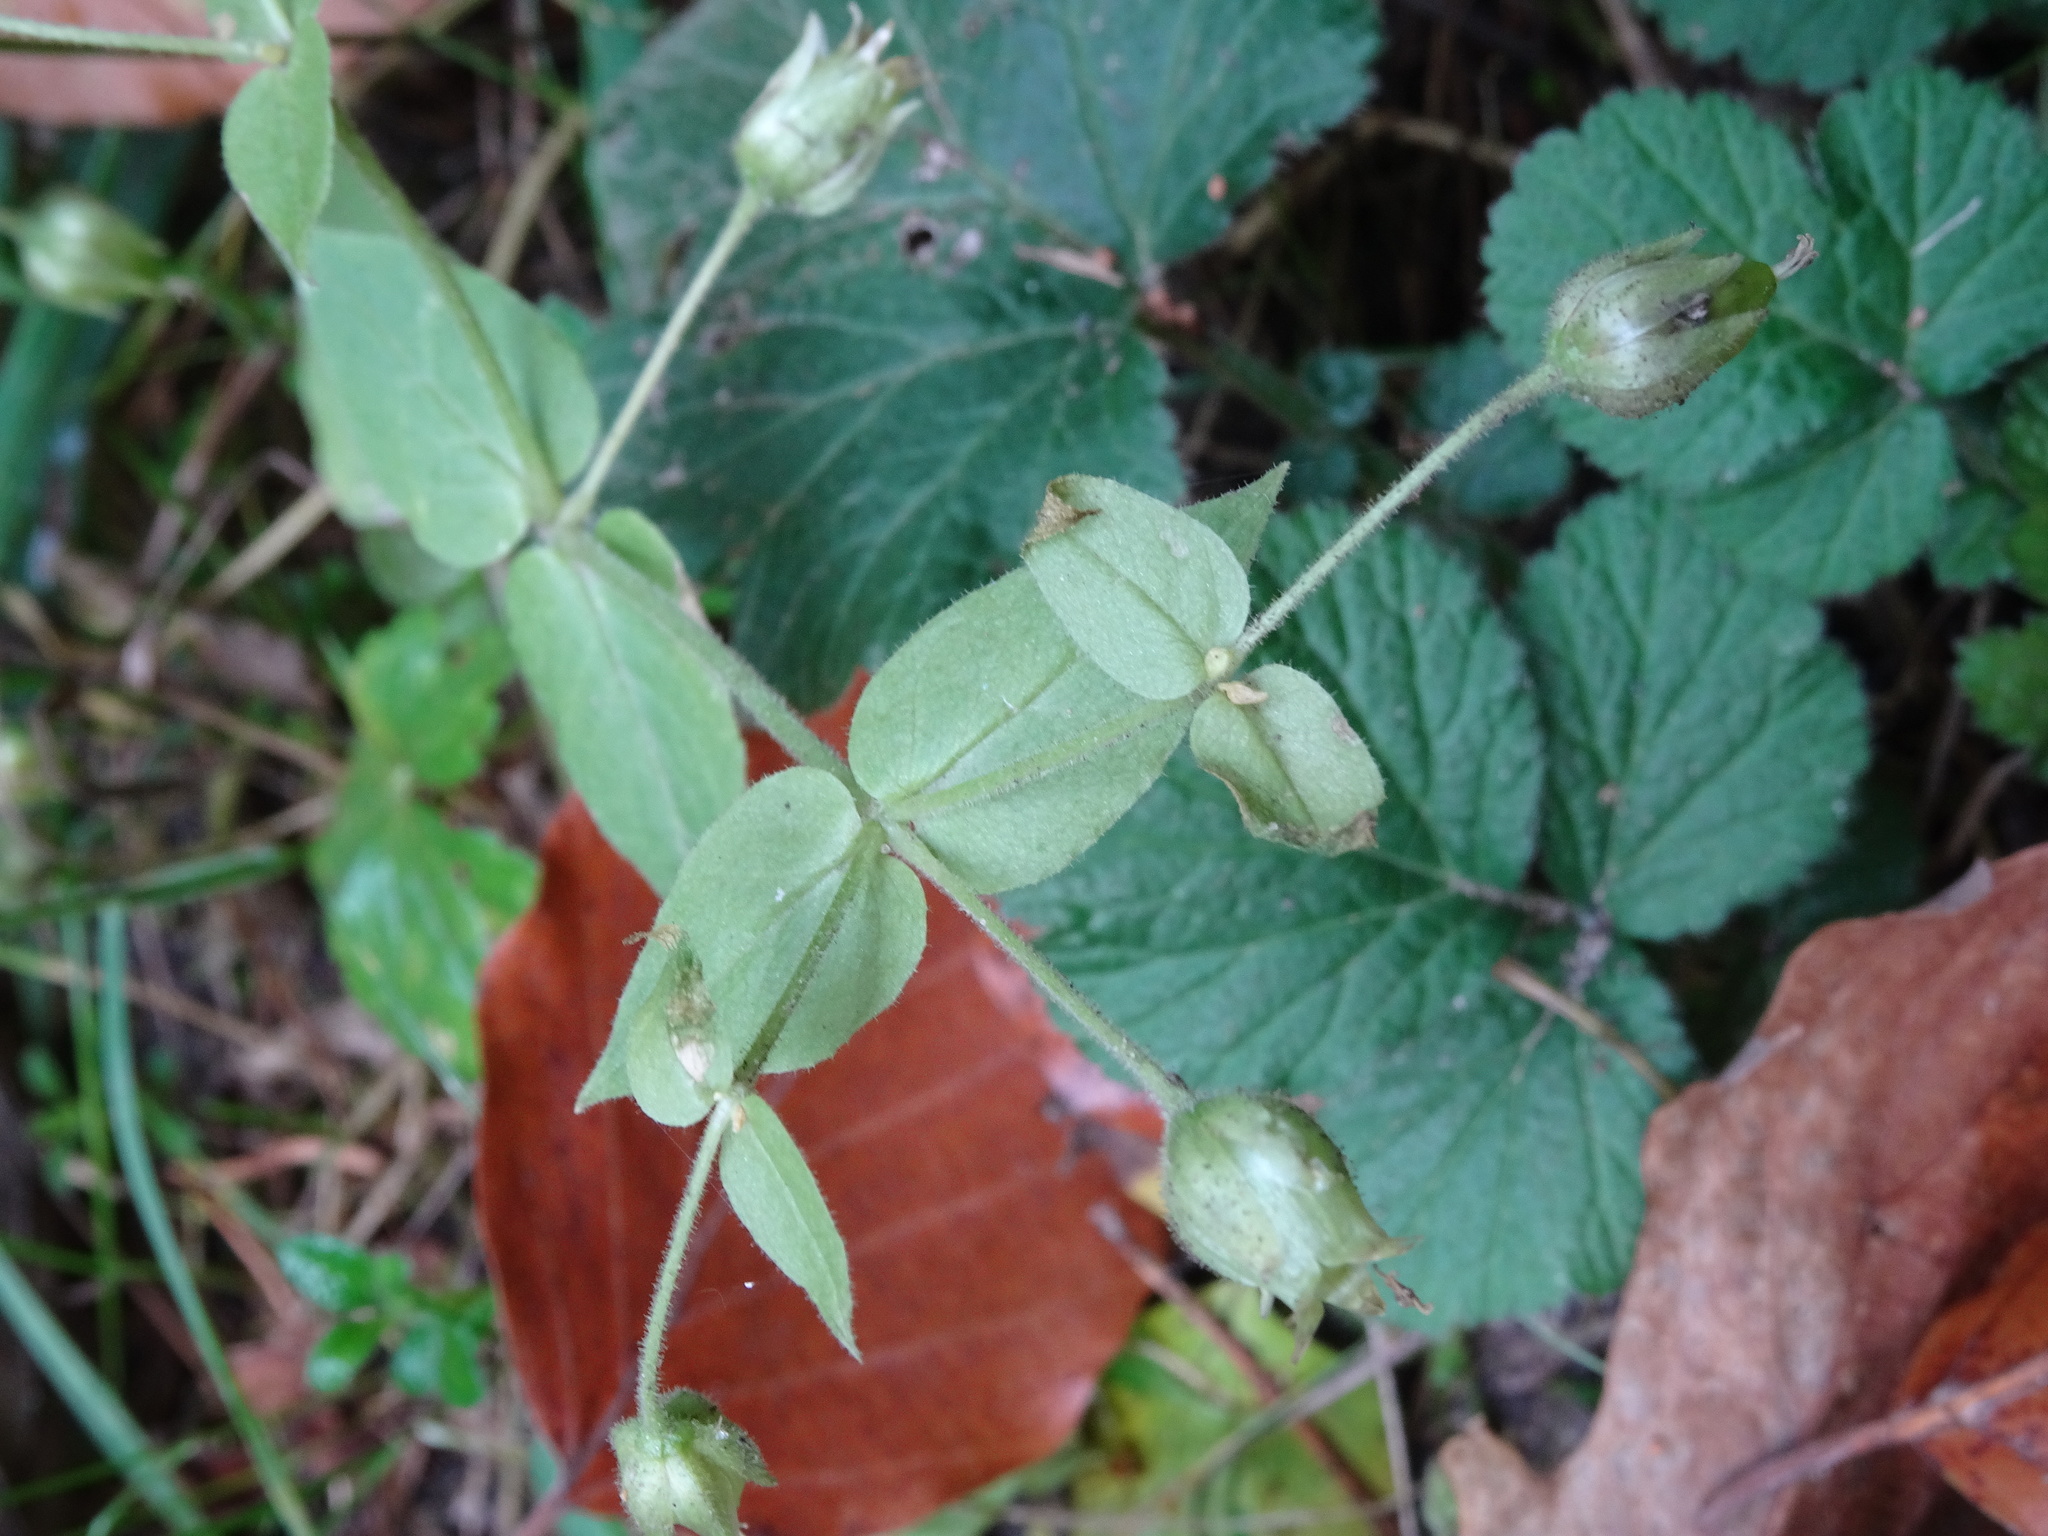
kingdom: Plantae
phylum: Tracheophyta
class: Magnoliopsida
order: Caryophyllales
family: Caryophyllaceae
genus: Stellaria
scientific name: Stellaria aquatica
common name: Water chickweed
